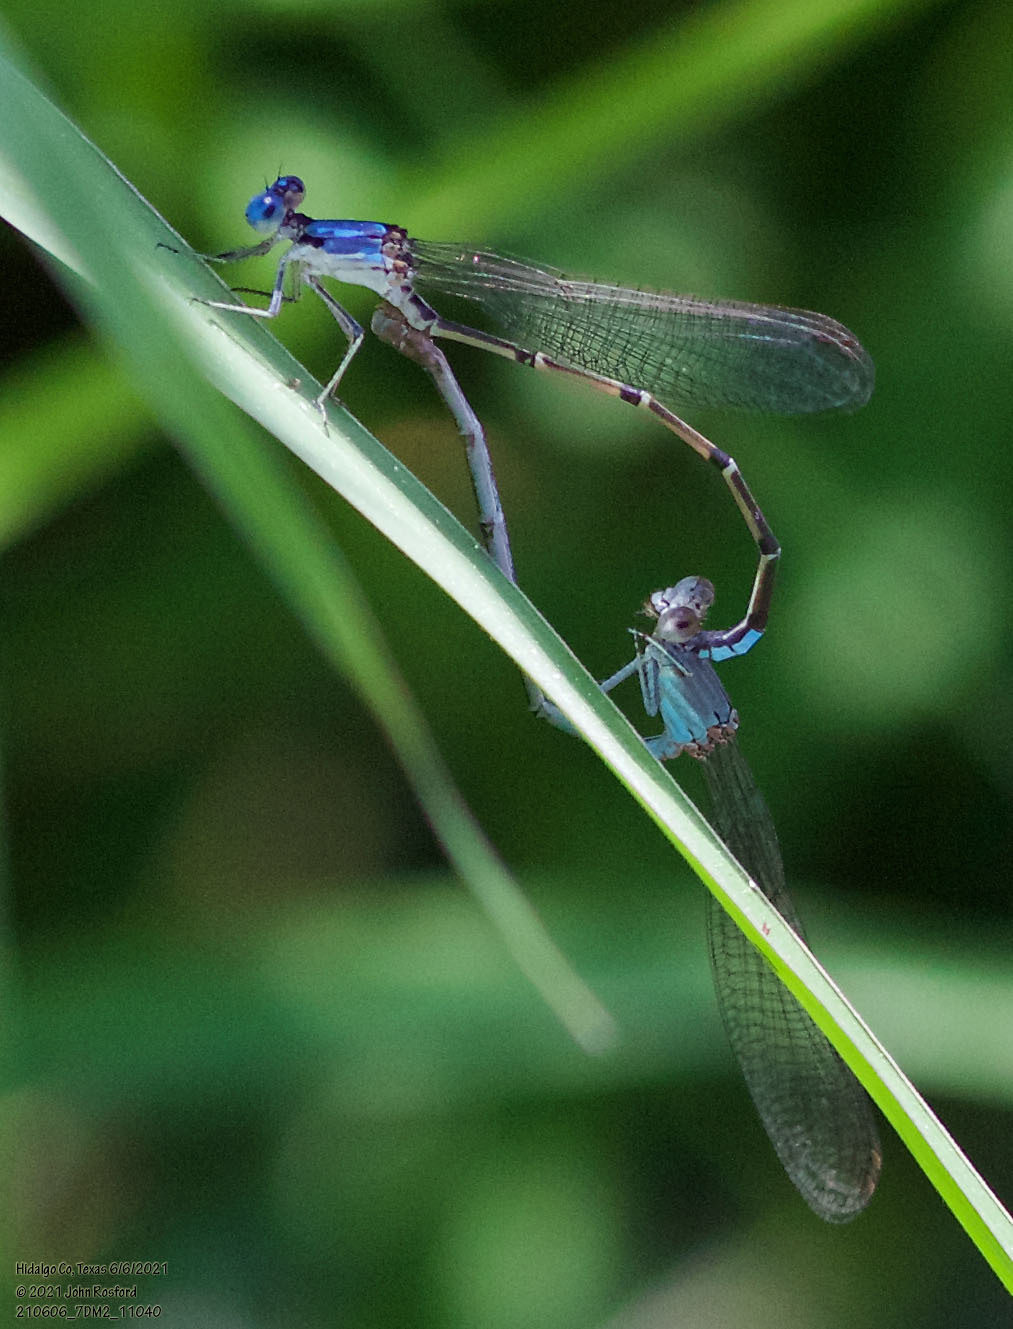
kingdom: Animalia
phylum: Arthropoda
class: Insecta
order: Odonata
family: Coenagrionidae
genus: Argia
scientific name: Argia apicalis
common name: Blue-fronted dancer
